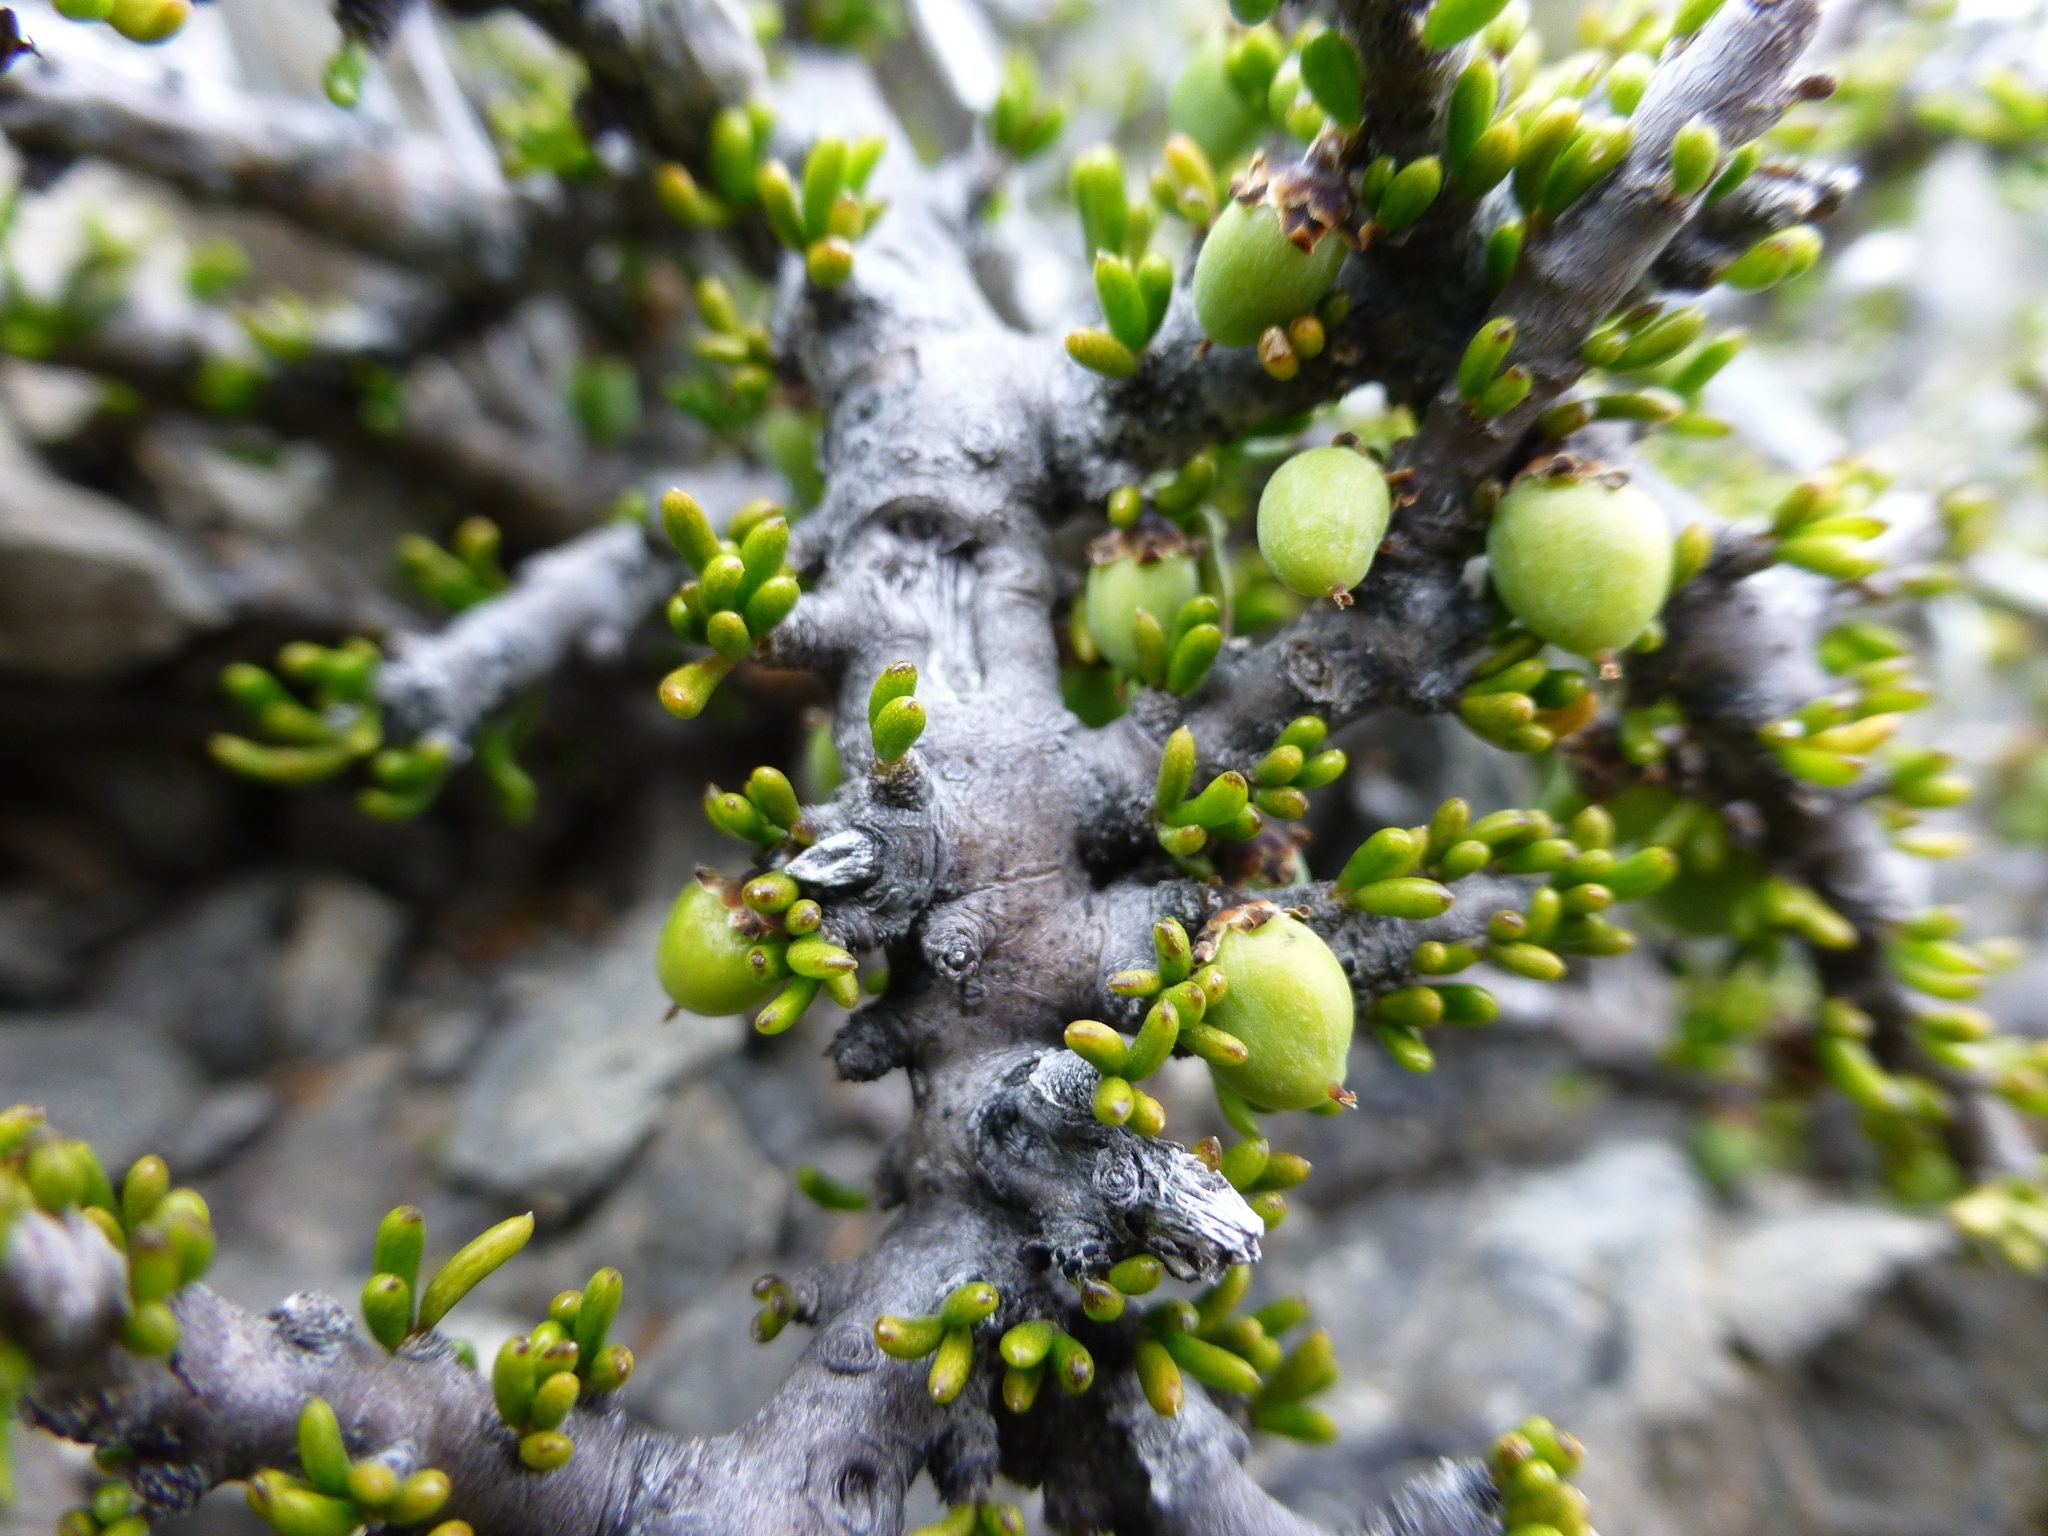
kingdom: Plantae
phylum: Tracheophyta
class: Magnoliopsida
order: Malpighiales
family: Violaceae
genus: Melicytus
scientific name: Melicytus alpinus
